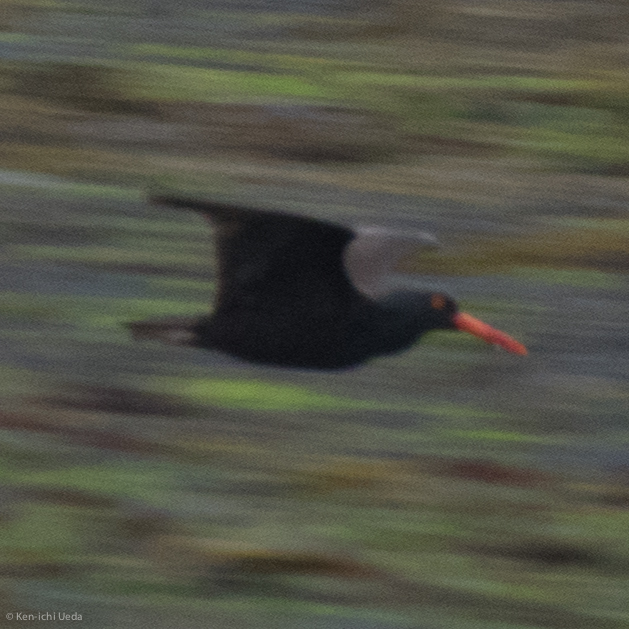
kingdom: Animalia
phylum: Chordata
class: Aves
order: Charadriiformes
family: Haematopodidae
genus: Haematopus
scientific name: Haematopus bachmani
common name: Black oystercatcher
